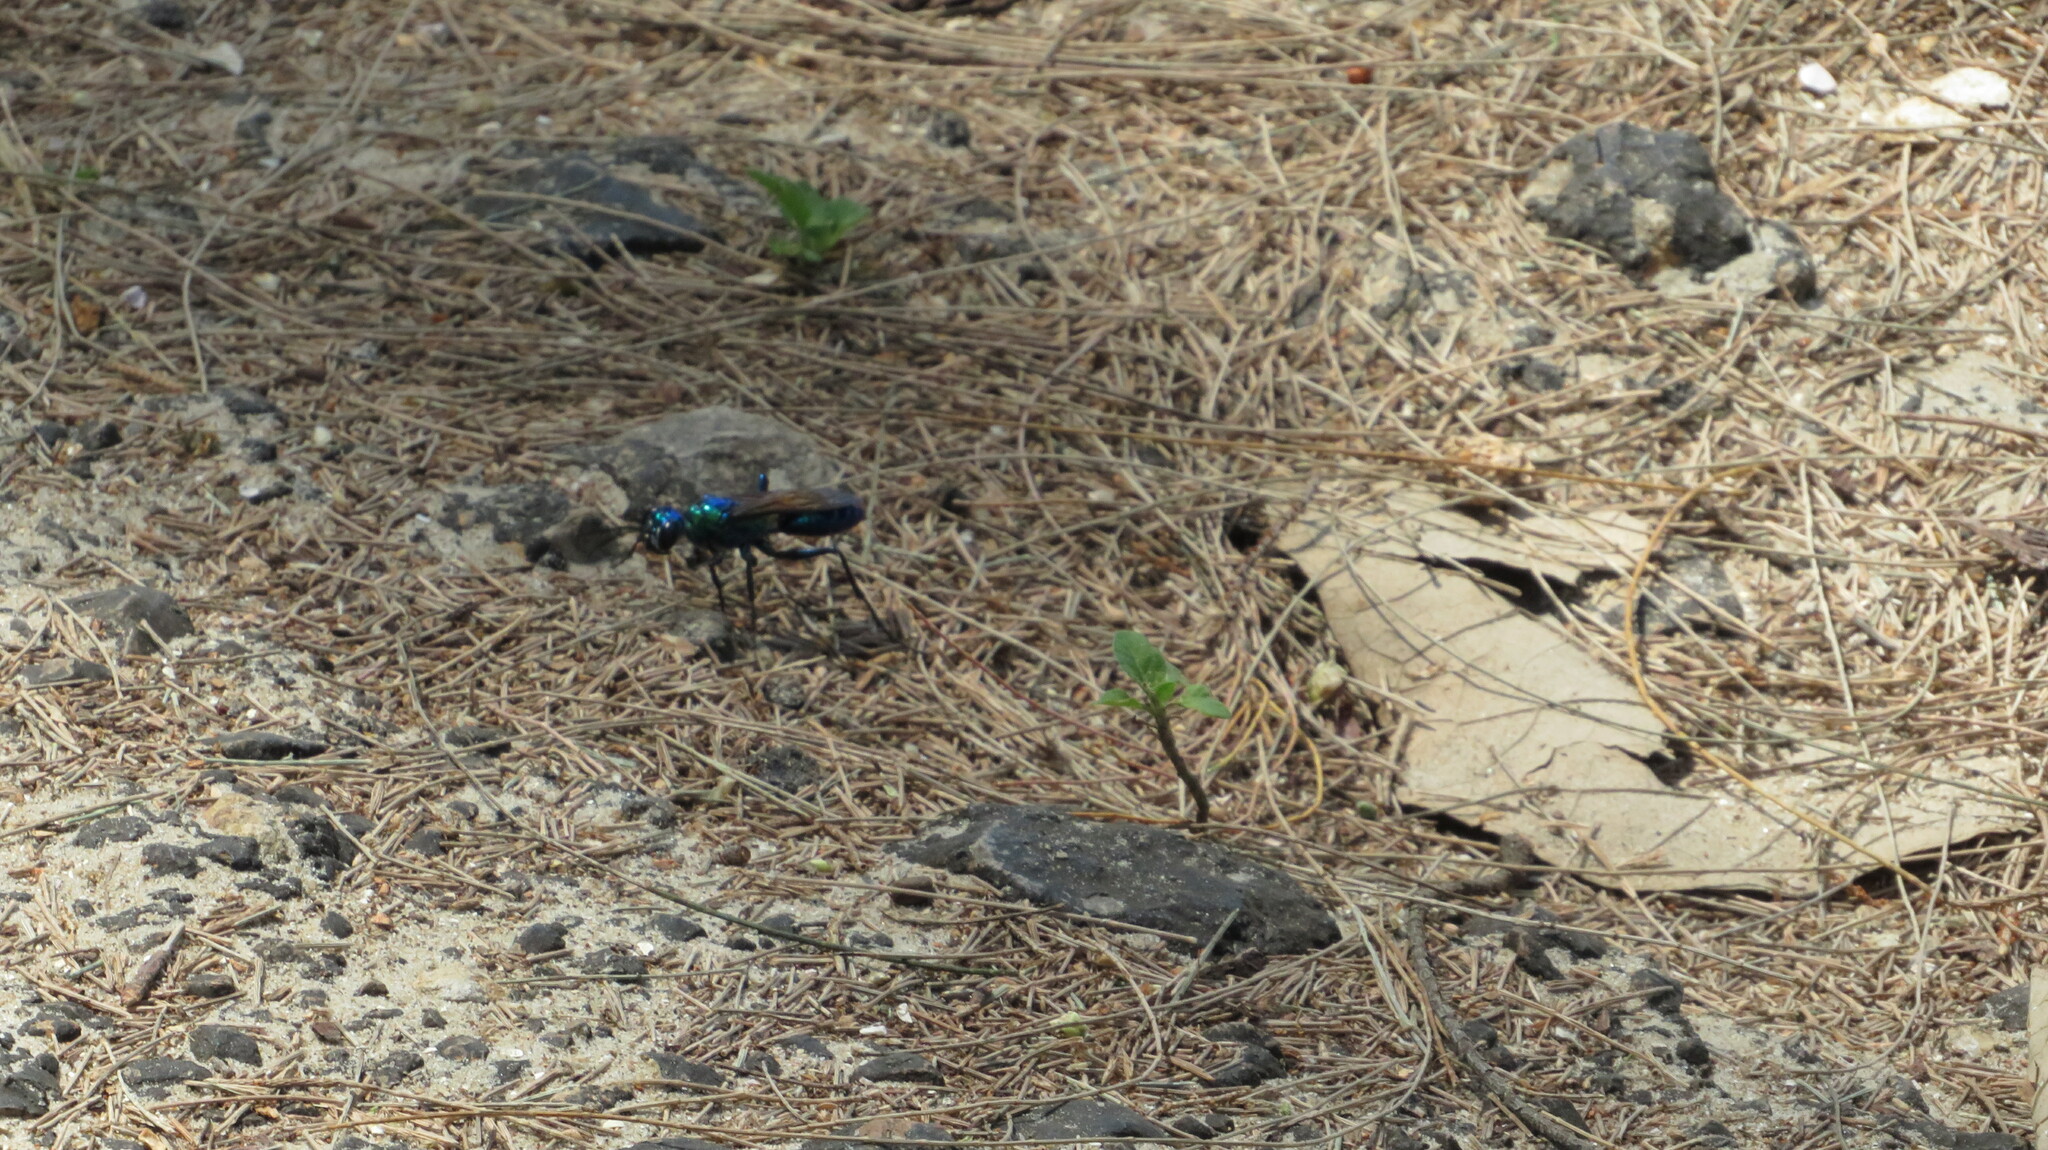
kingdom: Animalia
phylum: Arthropoda
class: Insecta
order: Hymenoptera
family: Sphecidae
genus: Chlorion
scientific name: Chlorion lobatum
